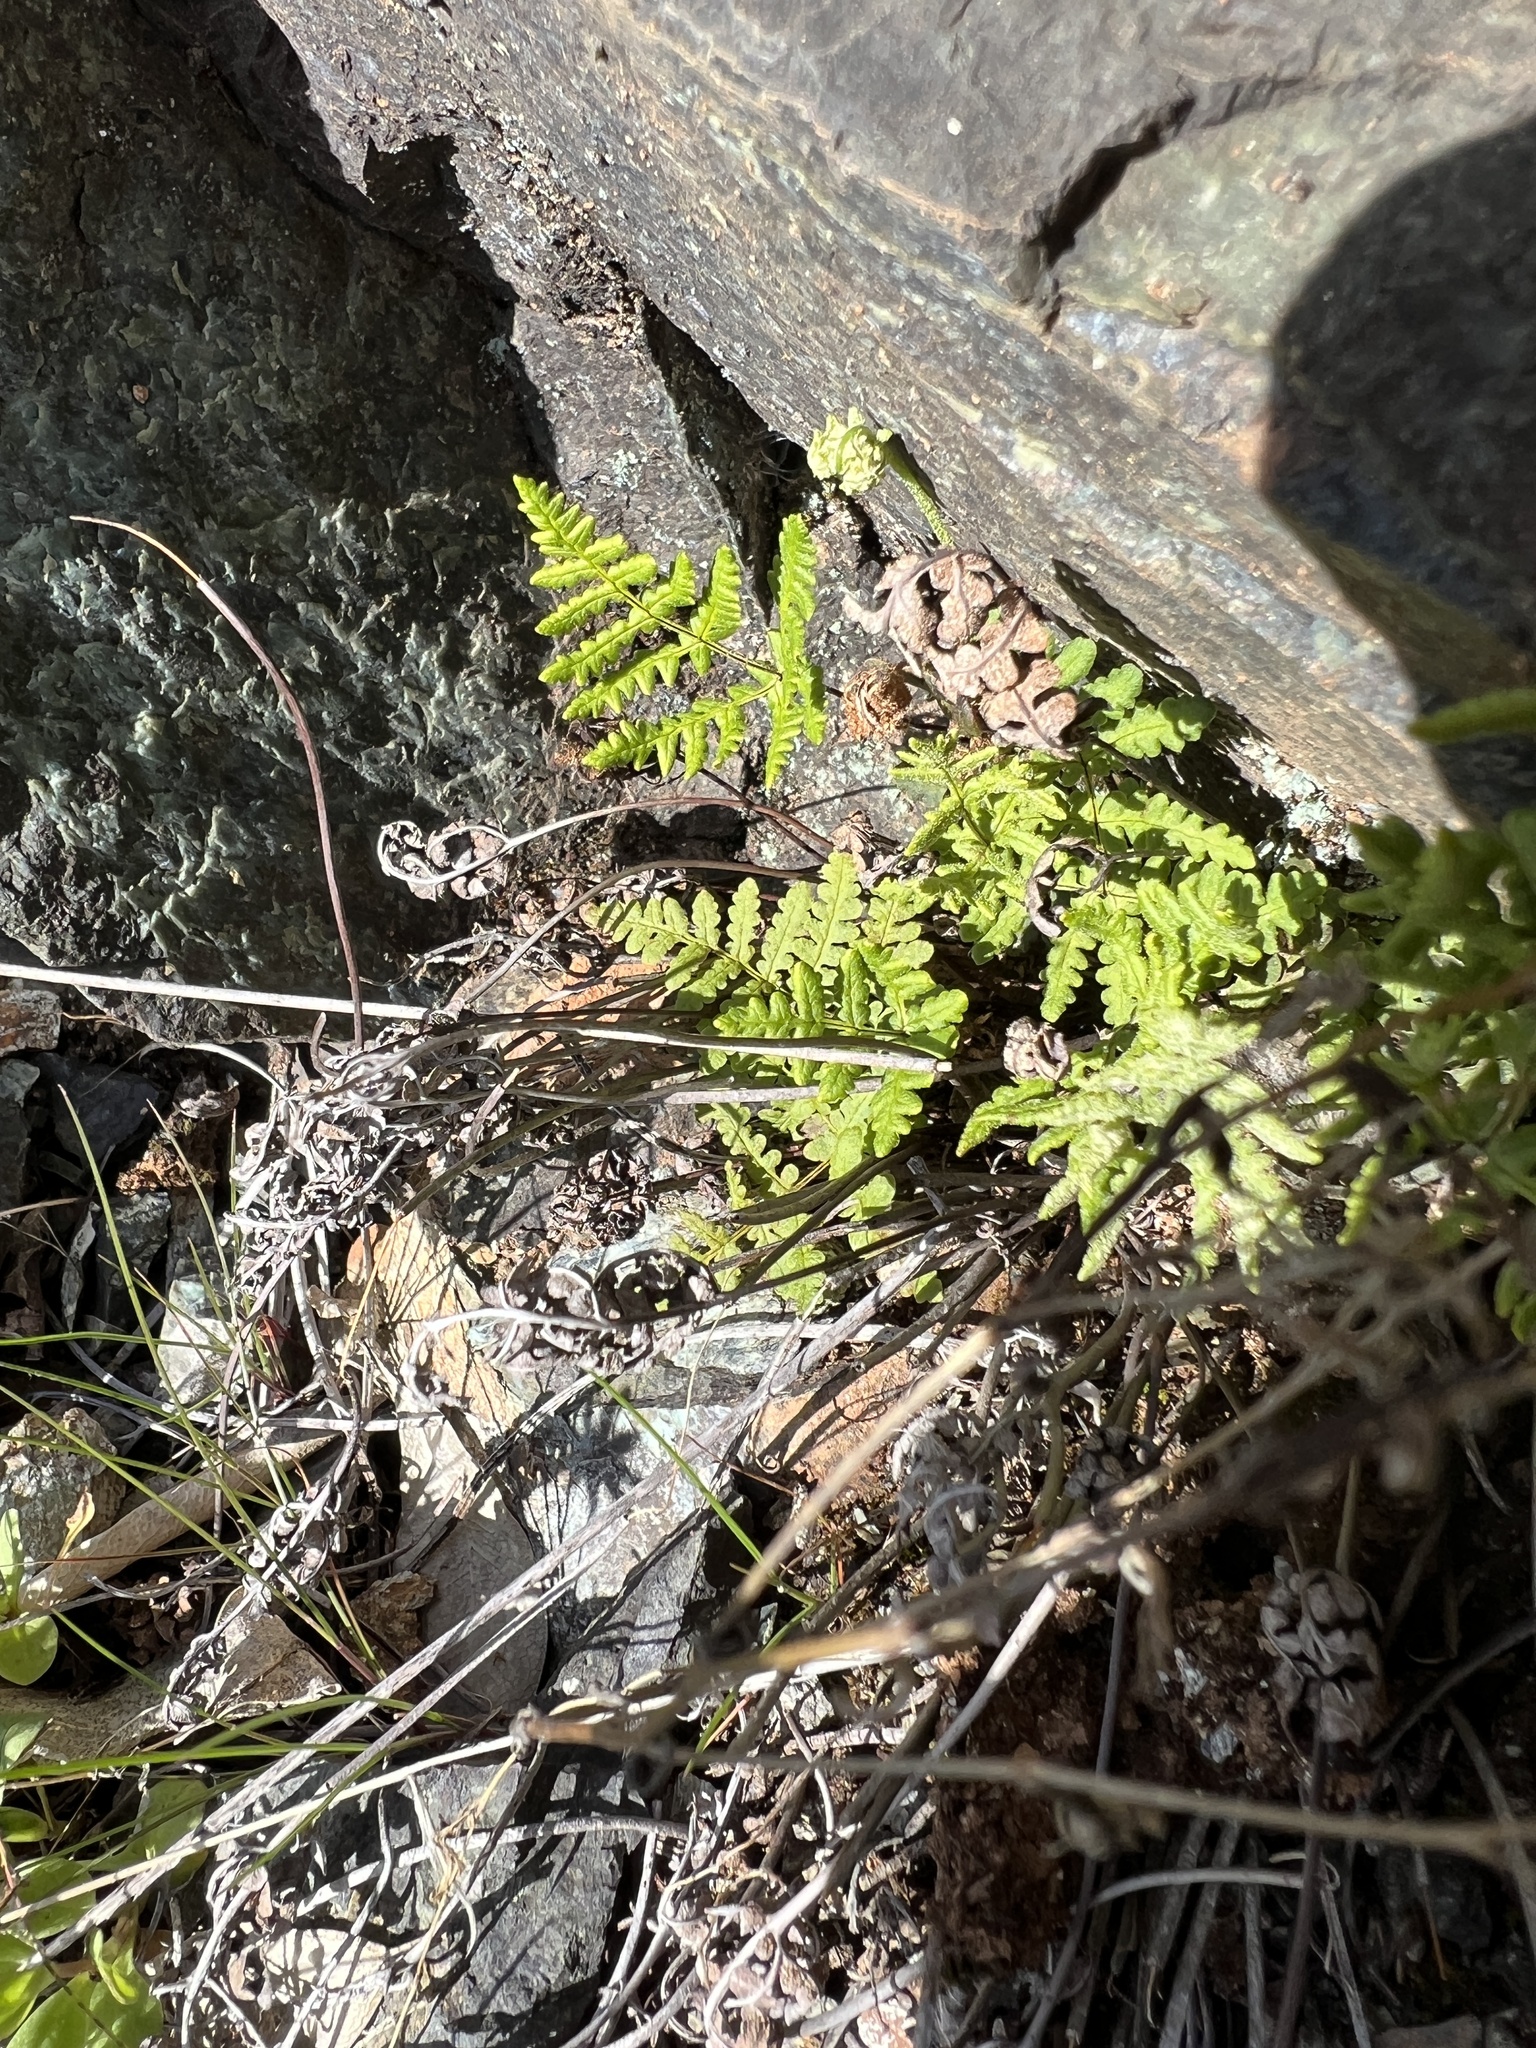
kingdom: Plantae
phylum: Tracheophyta
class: Polypodiopsida
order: Polypodiales
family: Pteridaceae
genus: Pentagramma
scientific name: Pentagramma triangularis
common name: Gold fern
